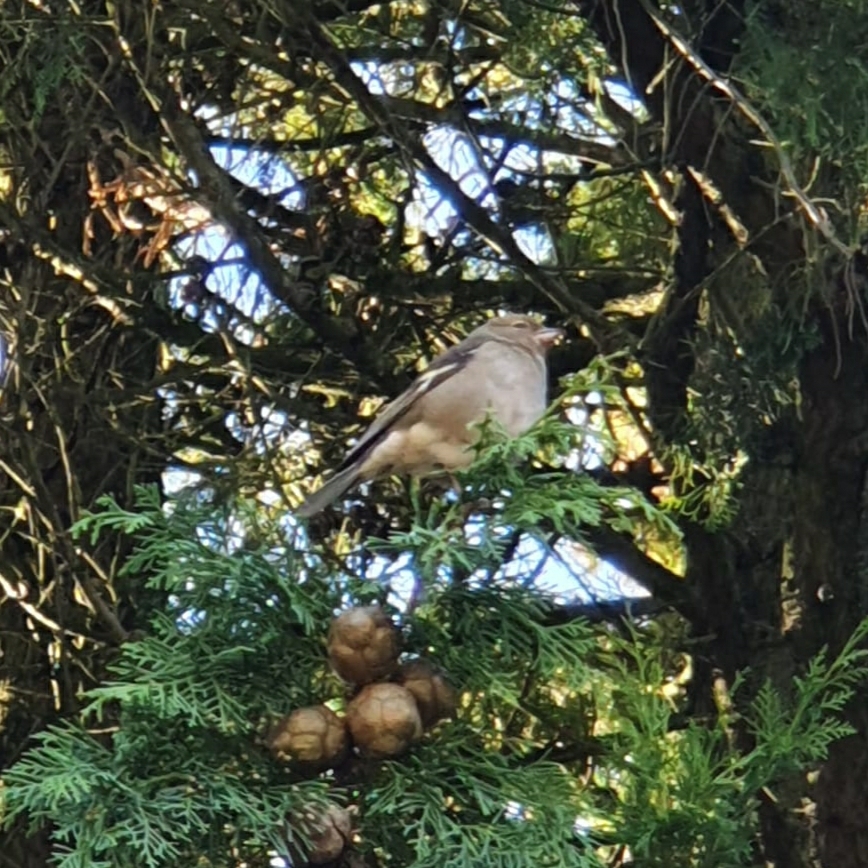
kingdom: Animalia
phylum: Chordata
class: Aves
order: Passeriformes
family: Fringillidae
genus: Fringilla
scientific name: Fringilla coelebs
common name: Common chaffinch
